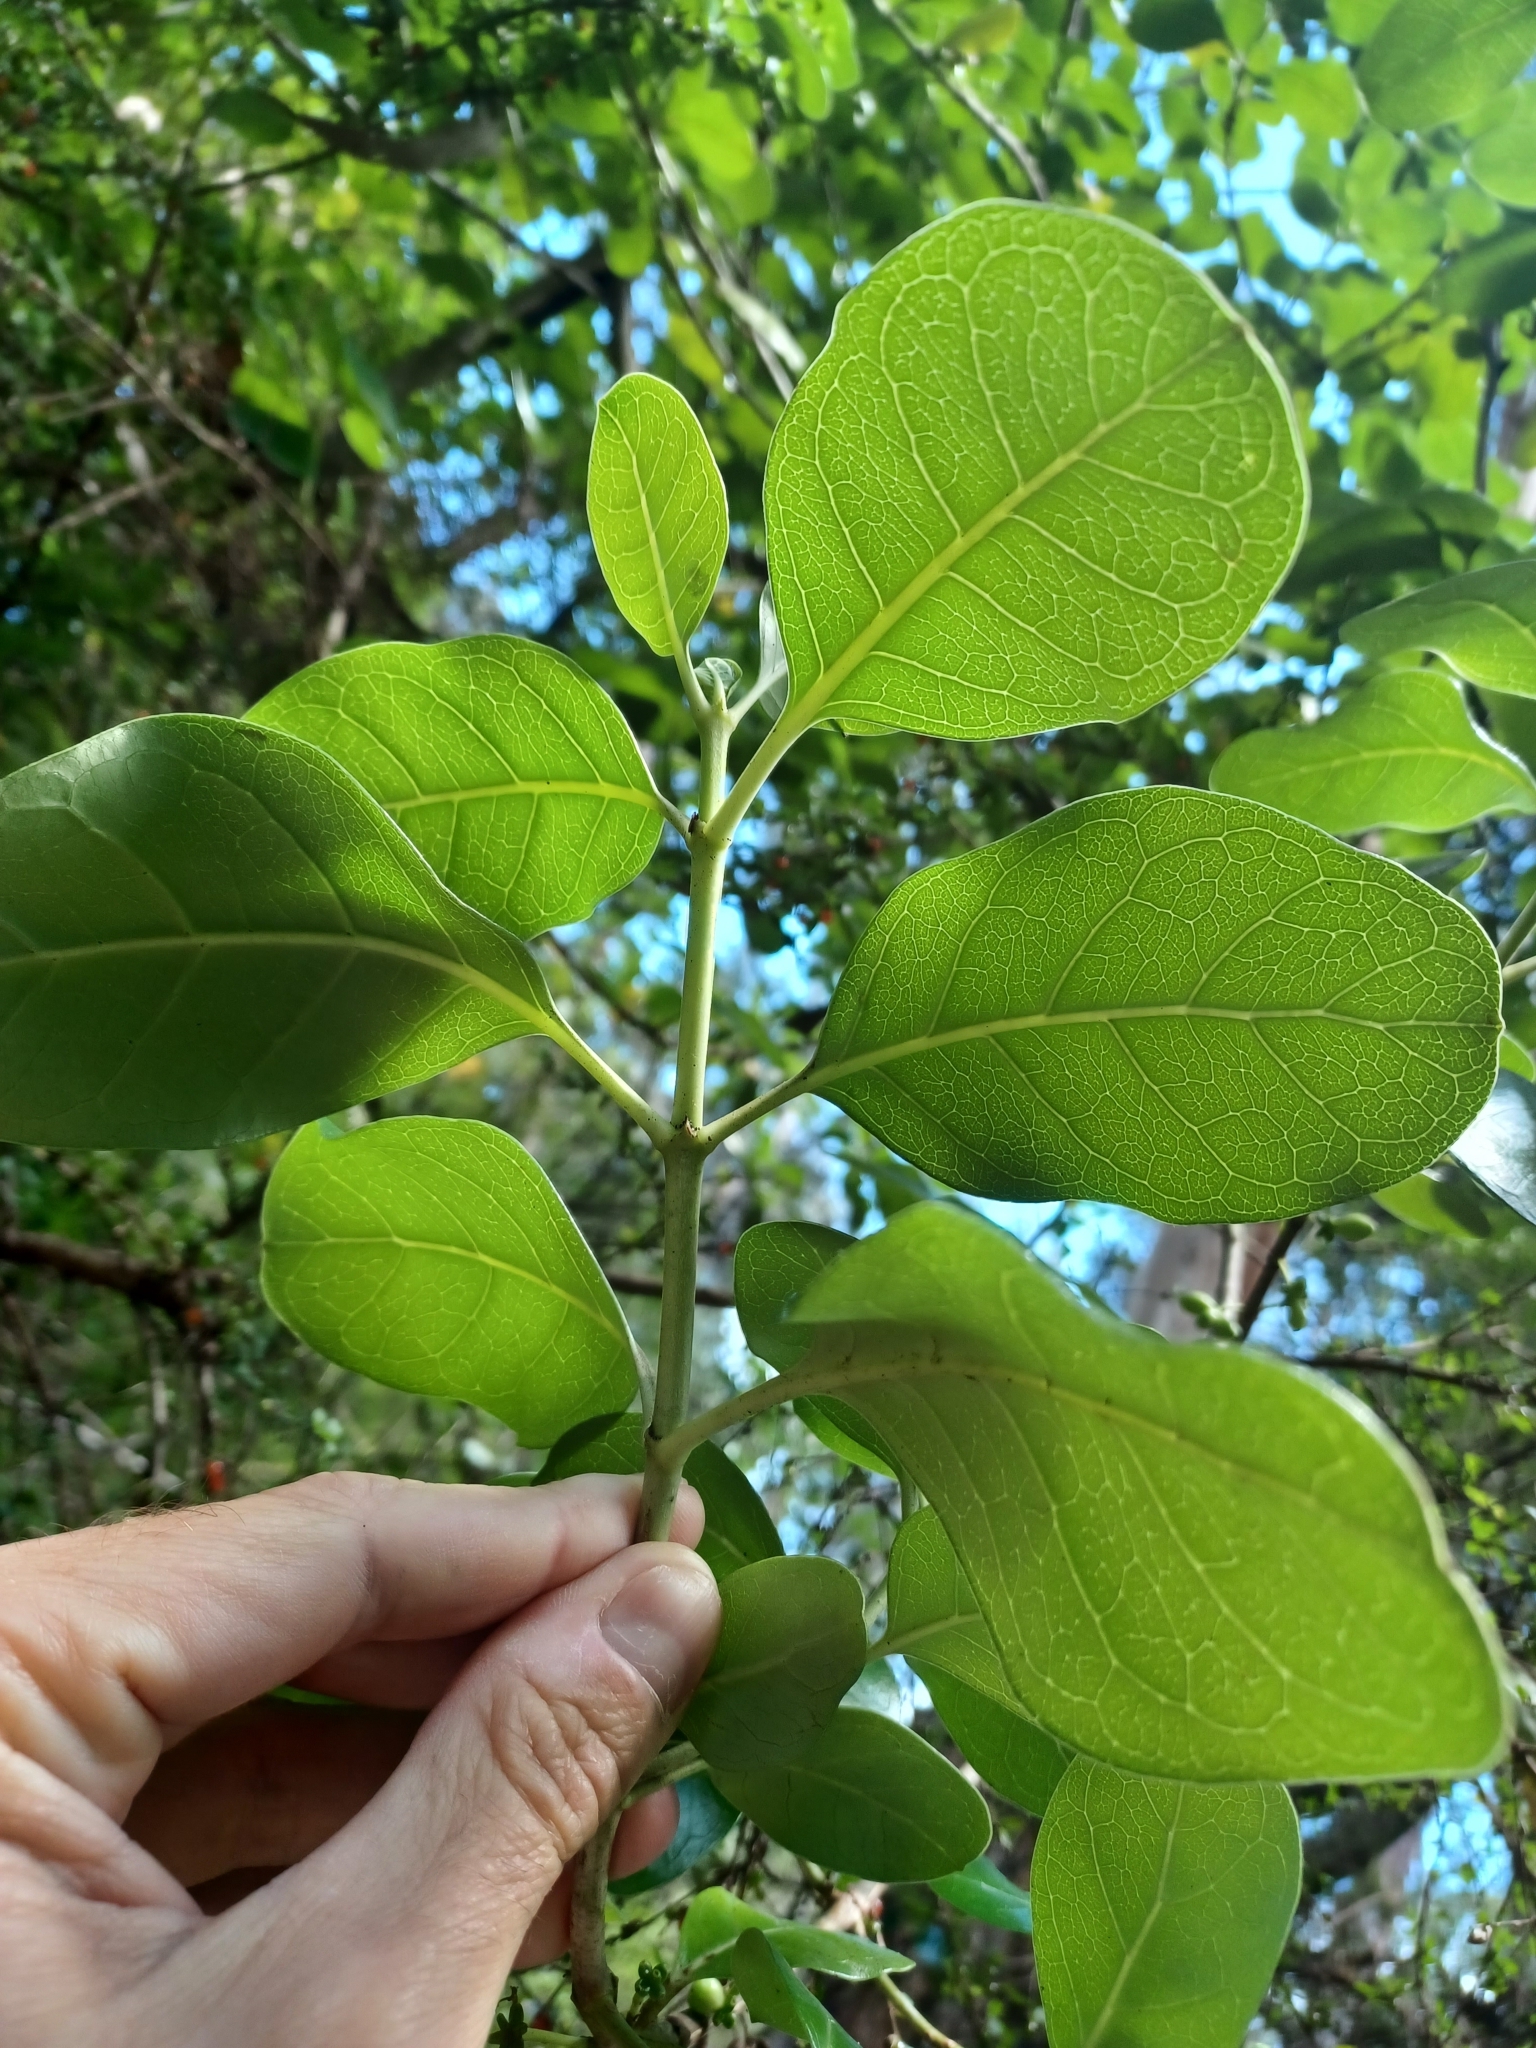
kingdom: Plantae
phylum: Tracheophyta
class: Magnoliopsida
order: Gentianales
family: Rubiaceae
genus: Coprosma
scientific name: Coprosma repens
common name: Tree bedstraw
